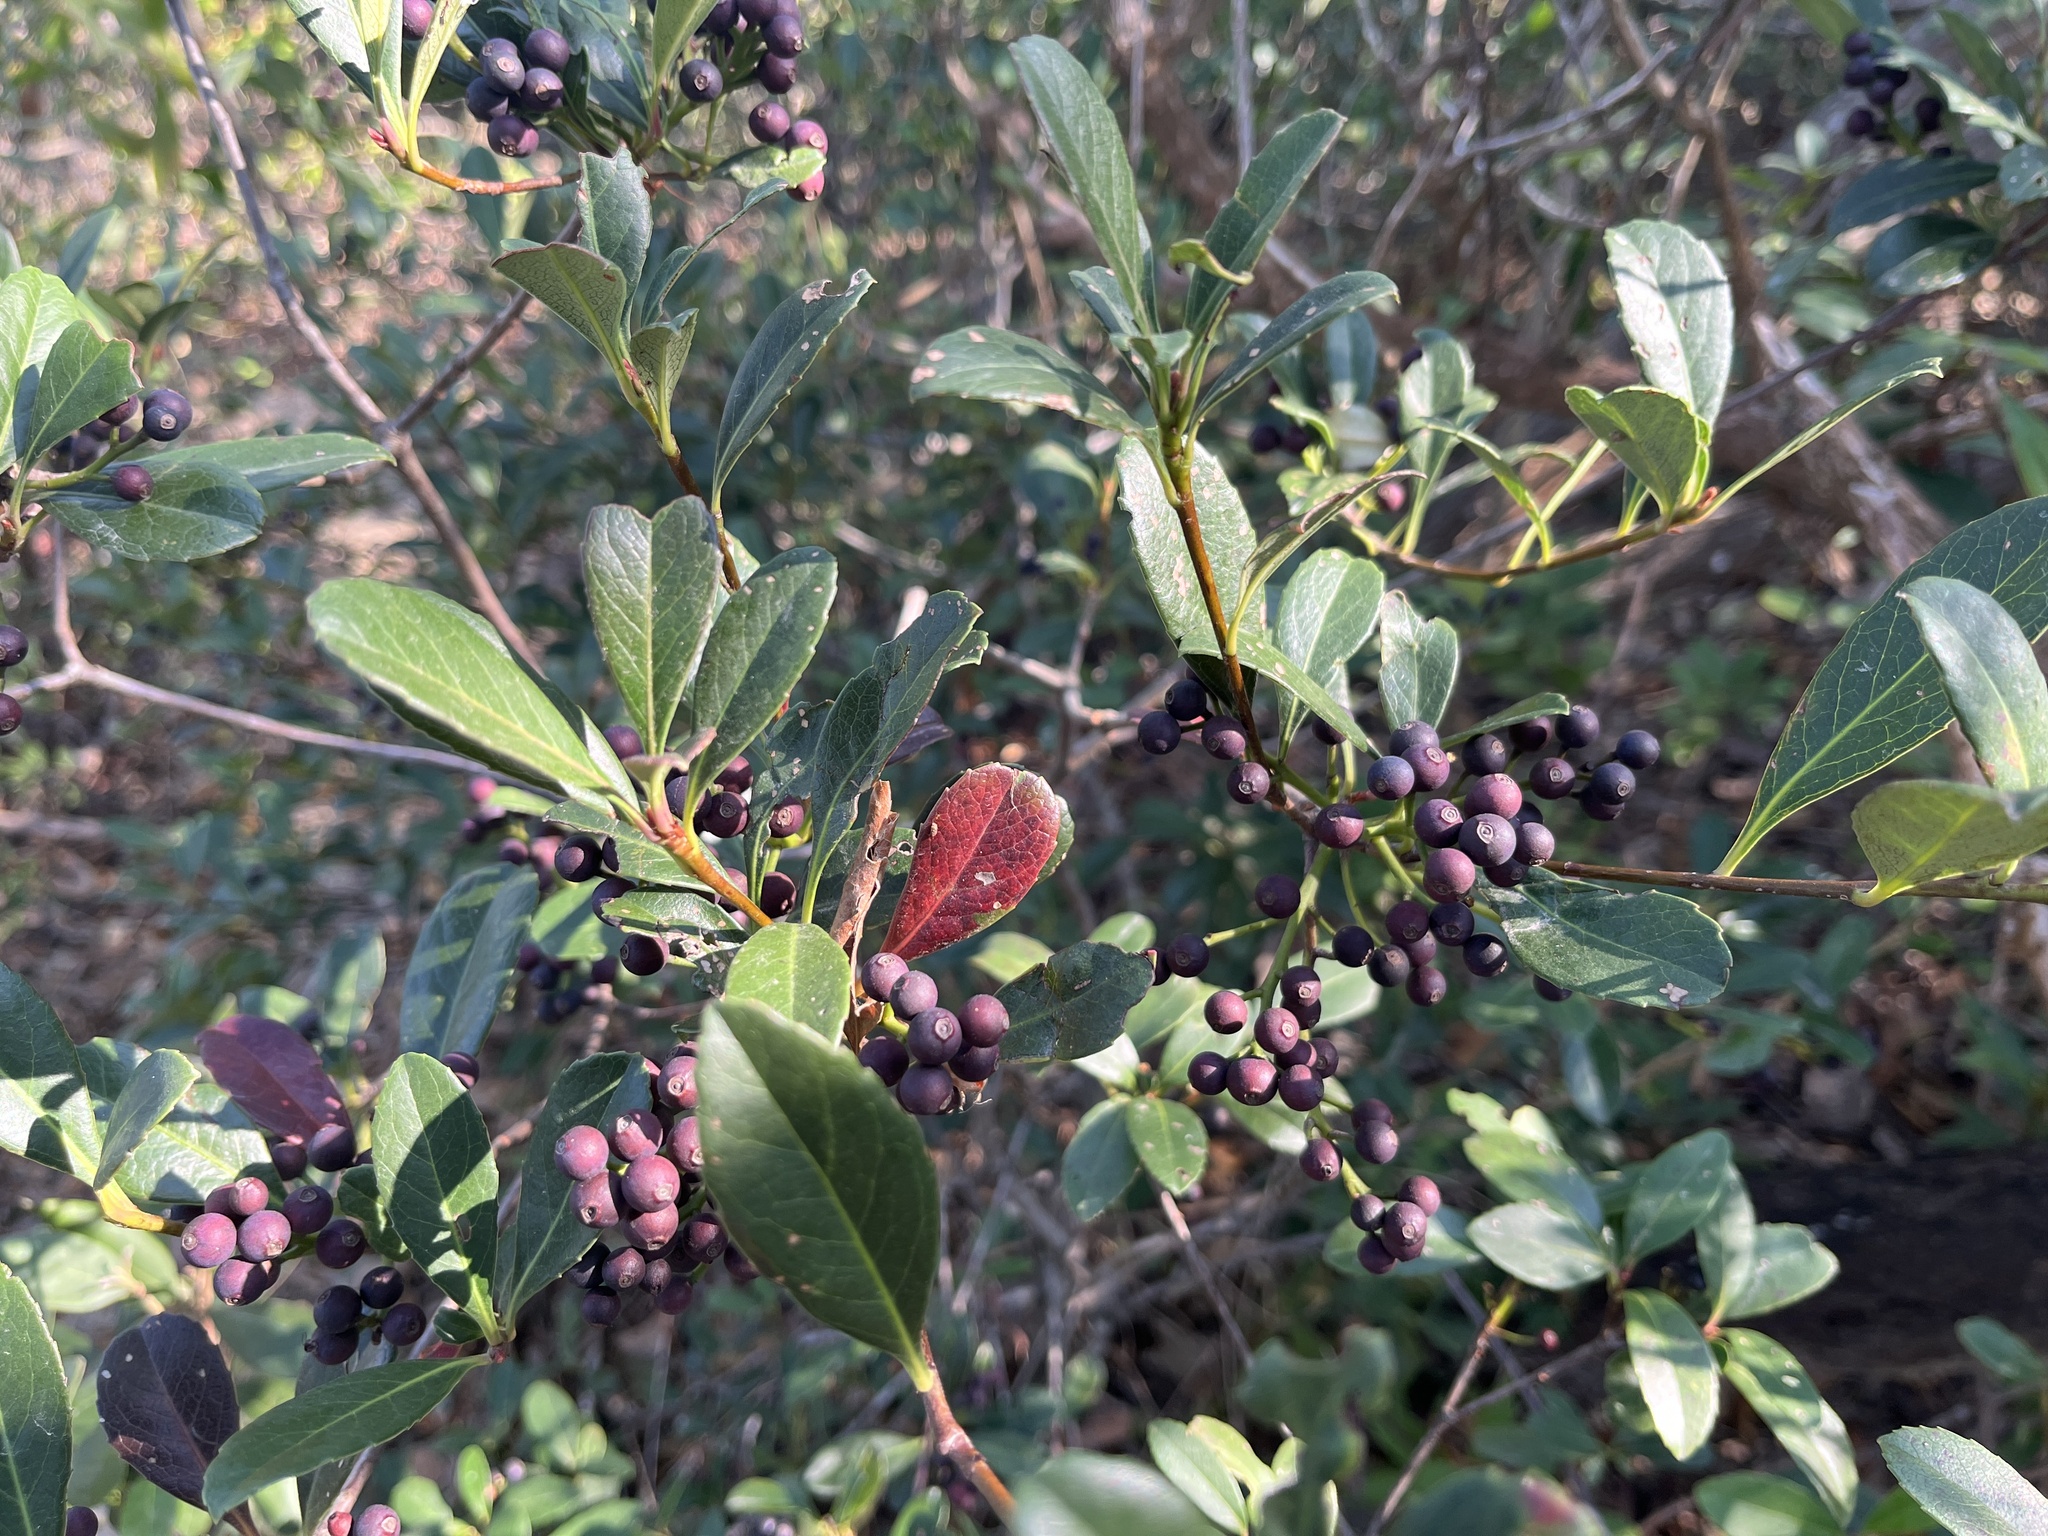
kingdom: Plantae
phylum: Tracheophyta
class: Magnoliopsida
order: Rosales
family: Rosaceae
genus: Rhaphiolepis
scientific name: Rhaphiolepis indica
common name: India-hawthorn
